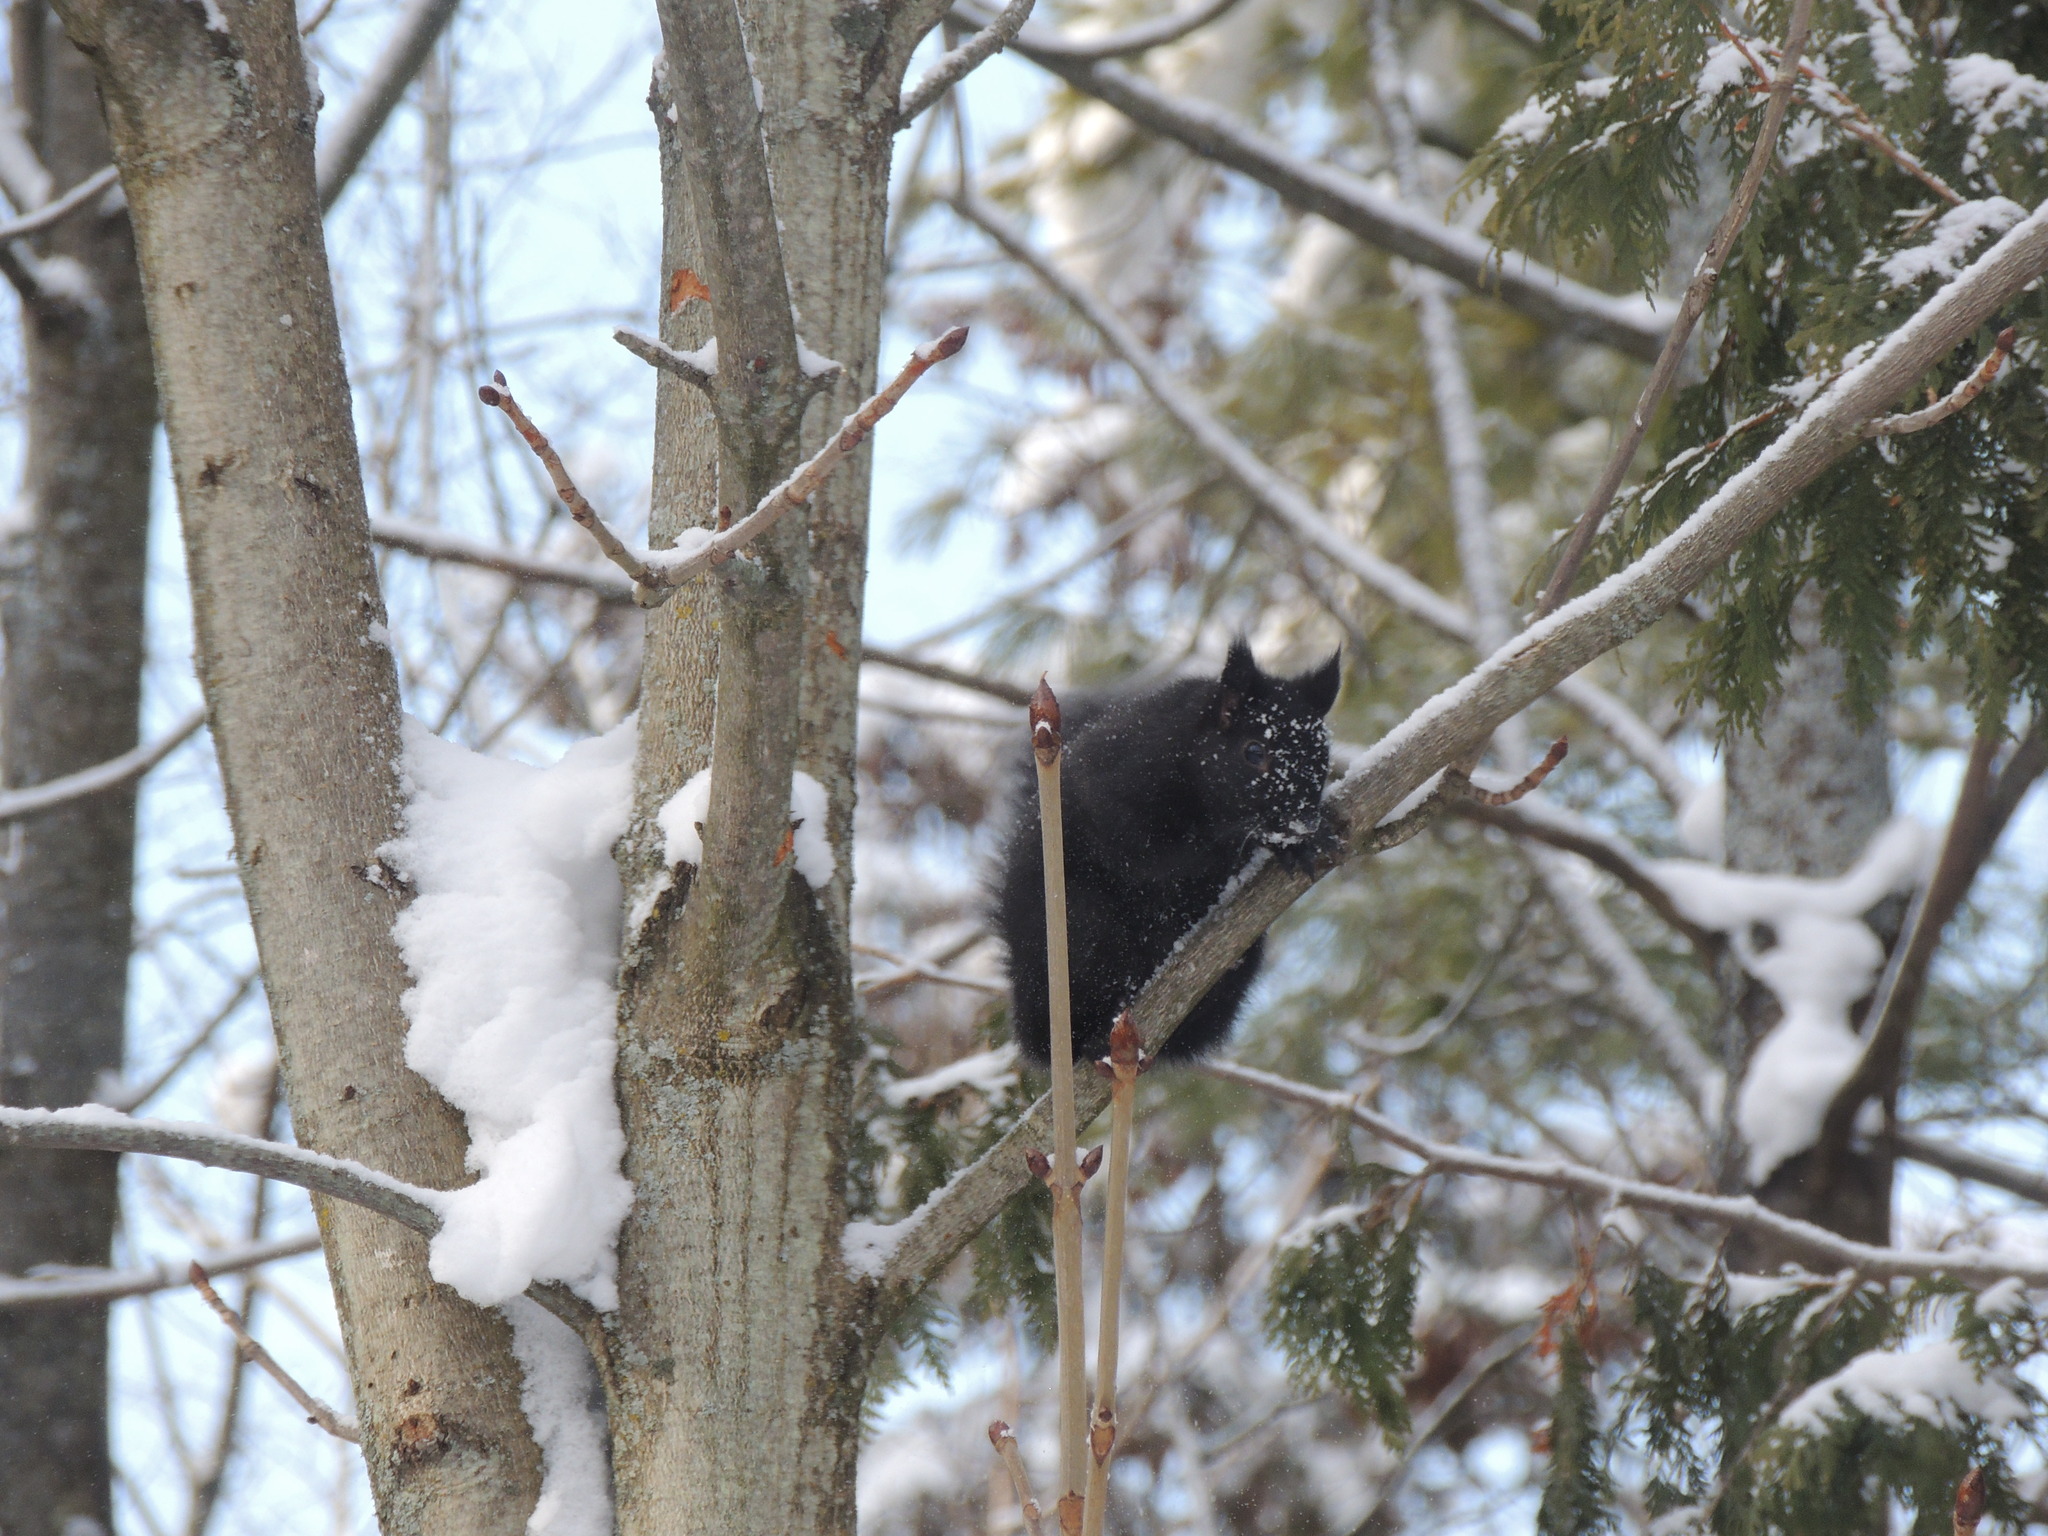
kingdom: Animalia
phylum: Chordata
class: Mammalia
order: Rodentia
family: Sciuridae
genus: Sciurus
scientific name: Sciurus carolinensis
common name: Eastern gray squirrel
